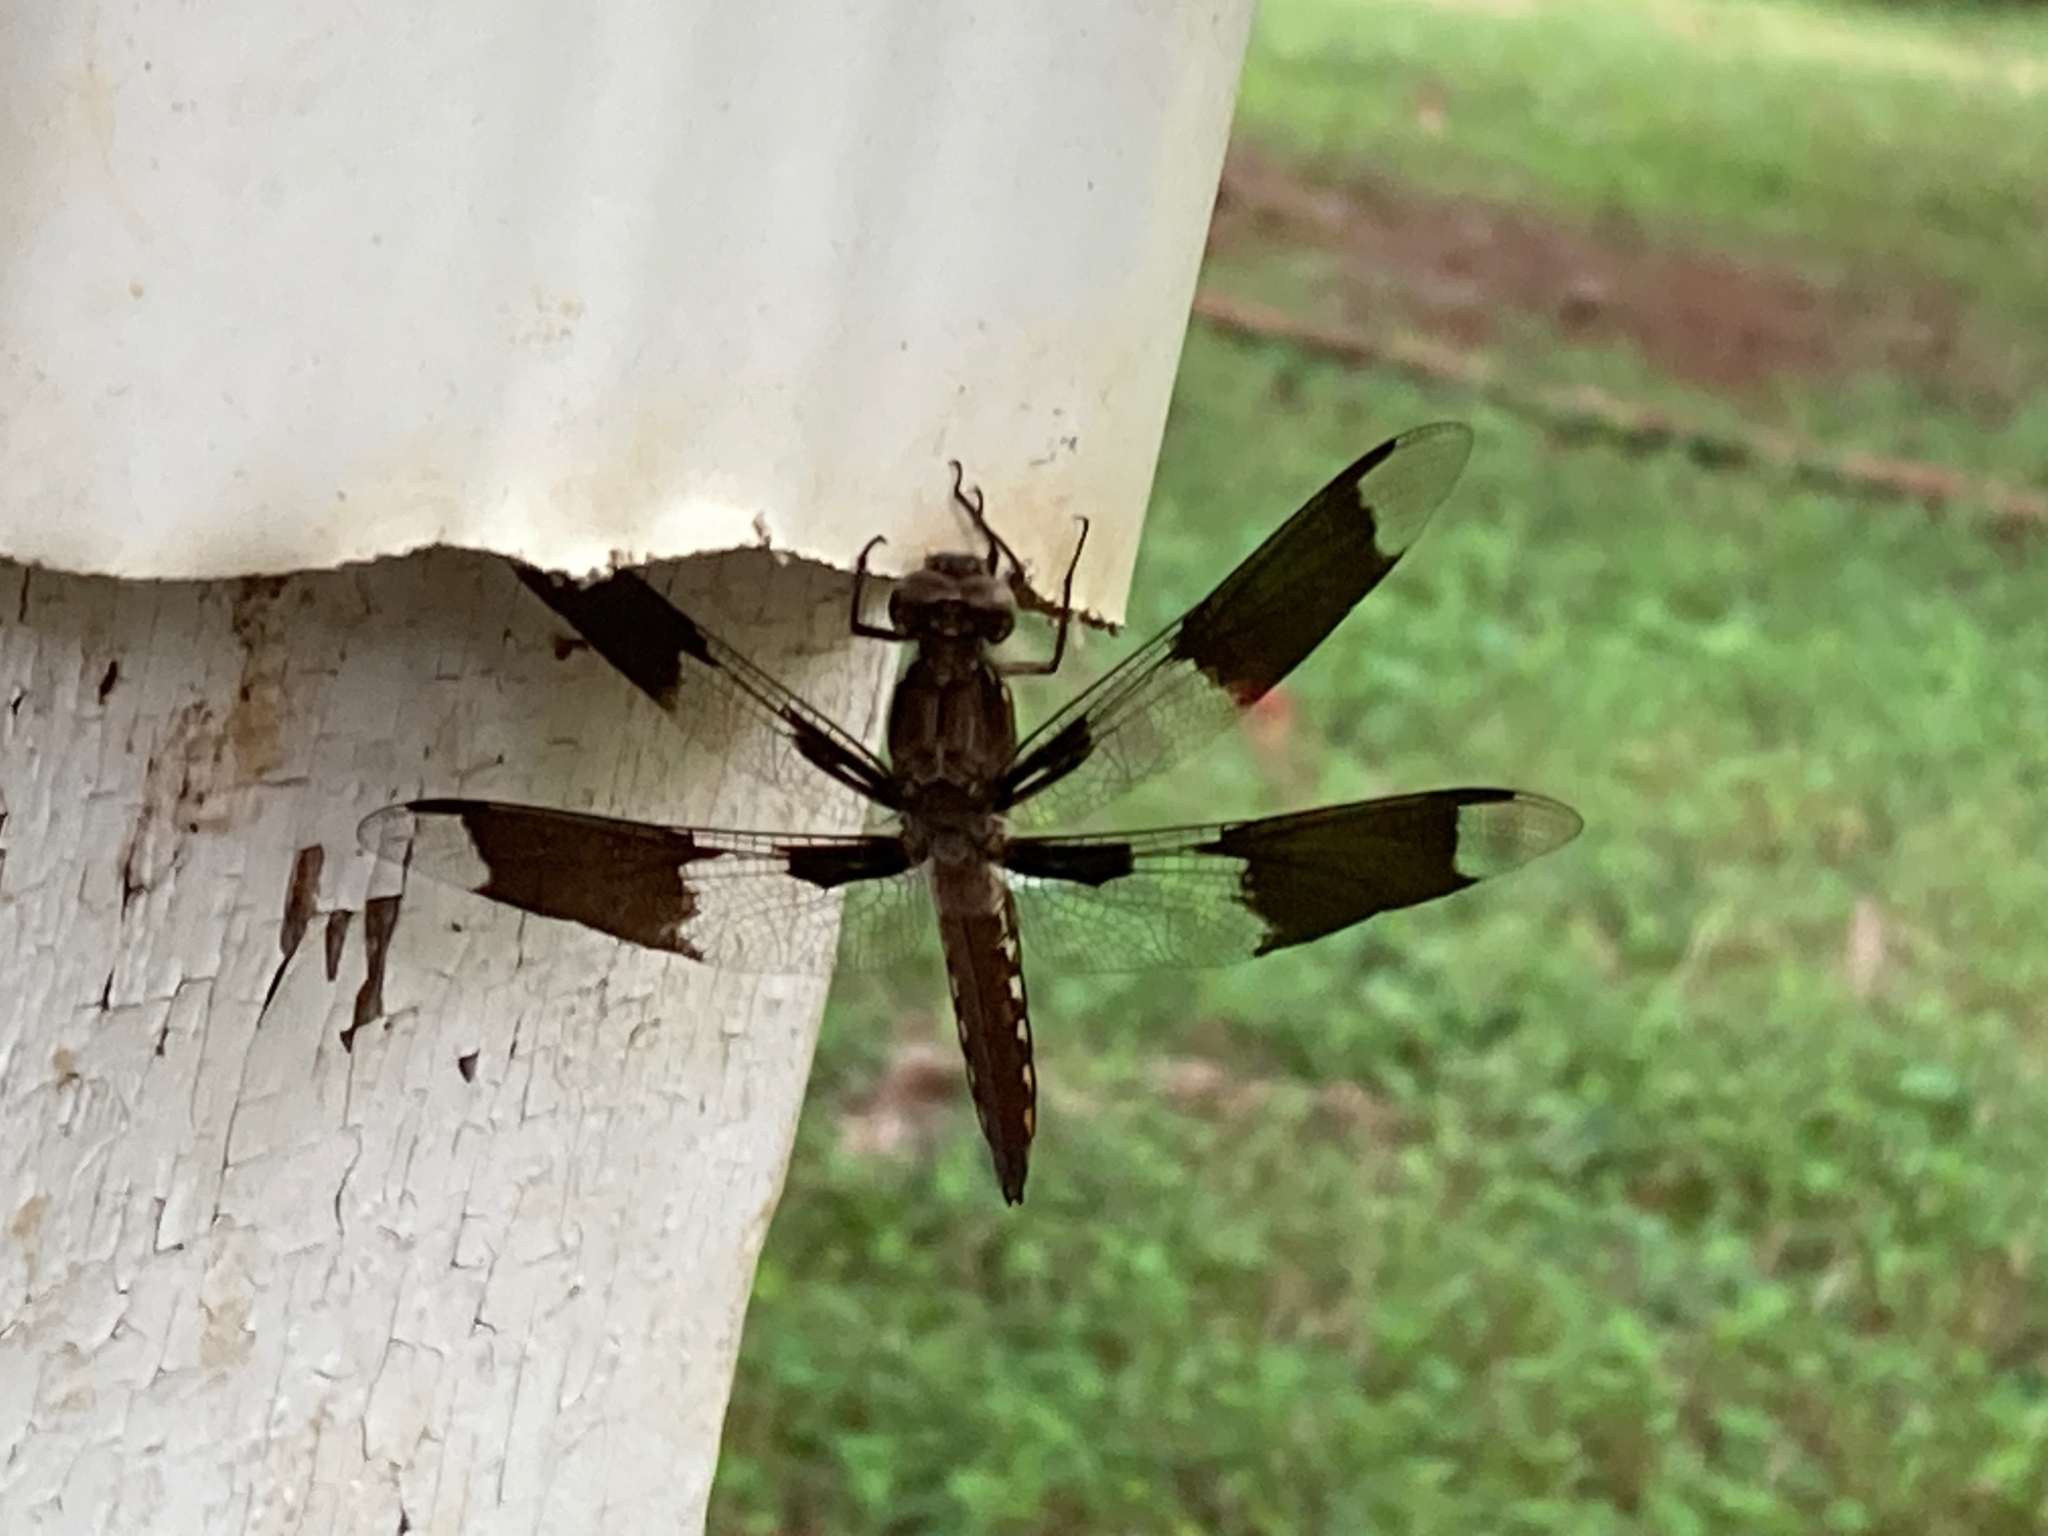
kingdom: Animalia
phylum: Arthropoda
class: Insecta
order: Odonata
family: Libellulidae
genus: Plathemis
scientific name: Plathemis lydia
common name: Common whitetail
